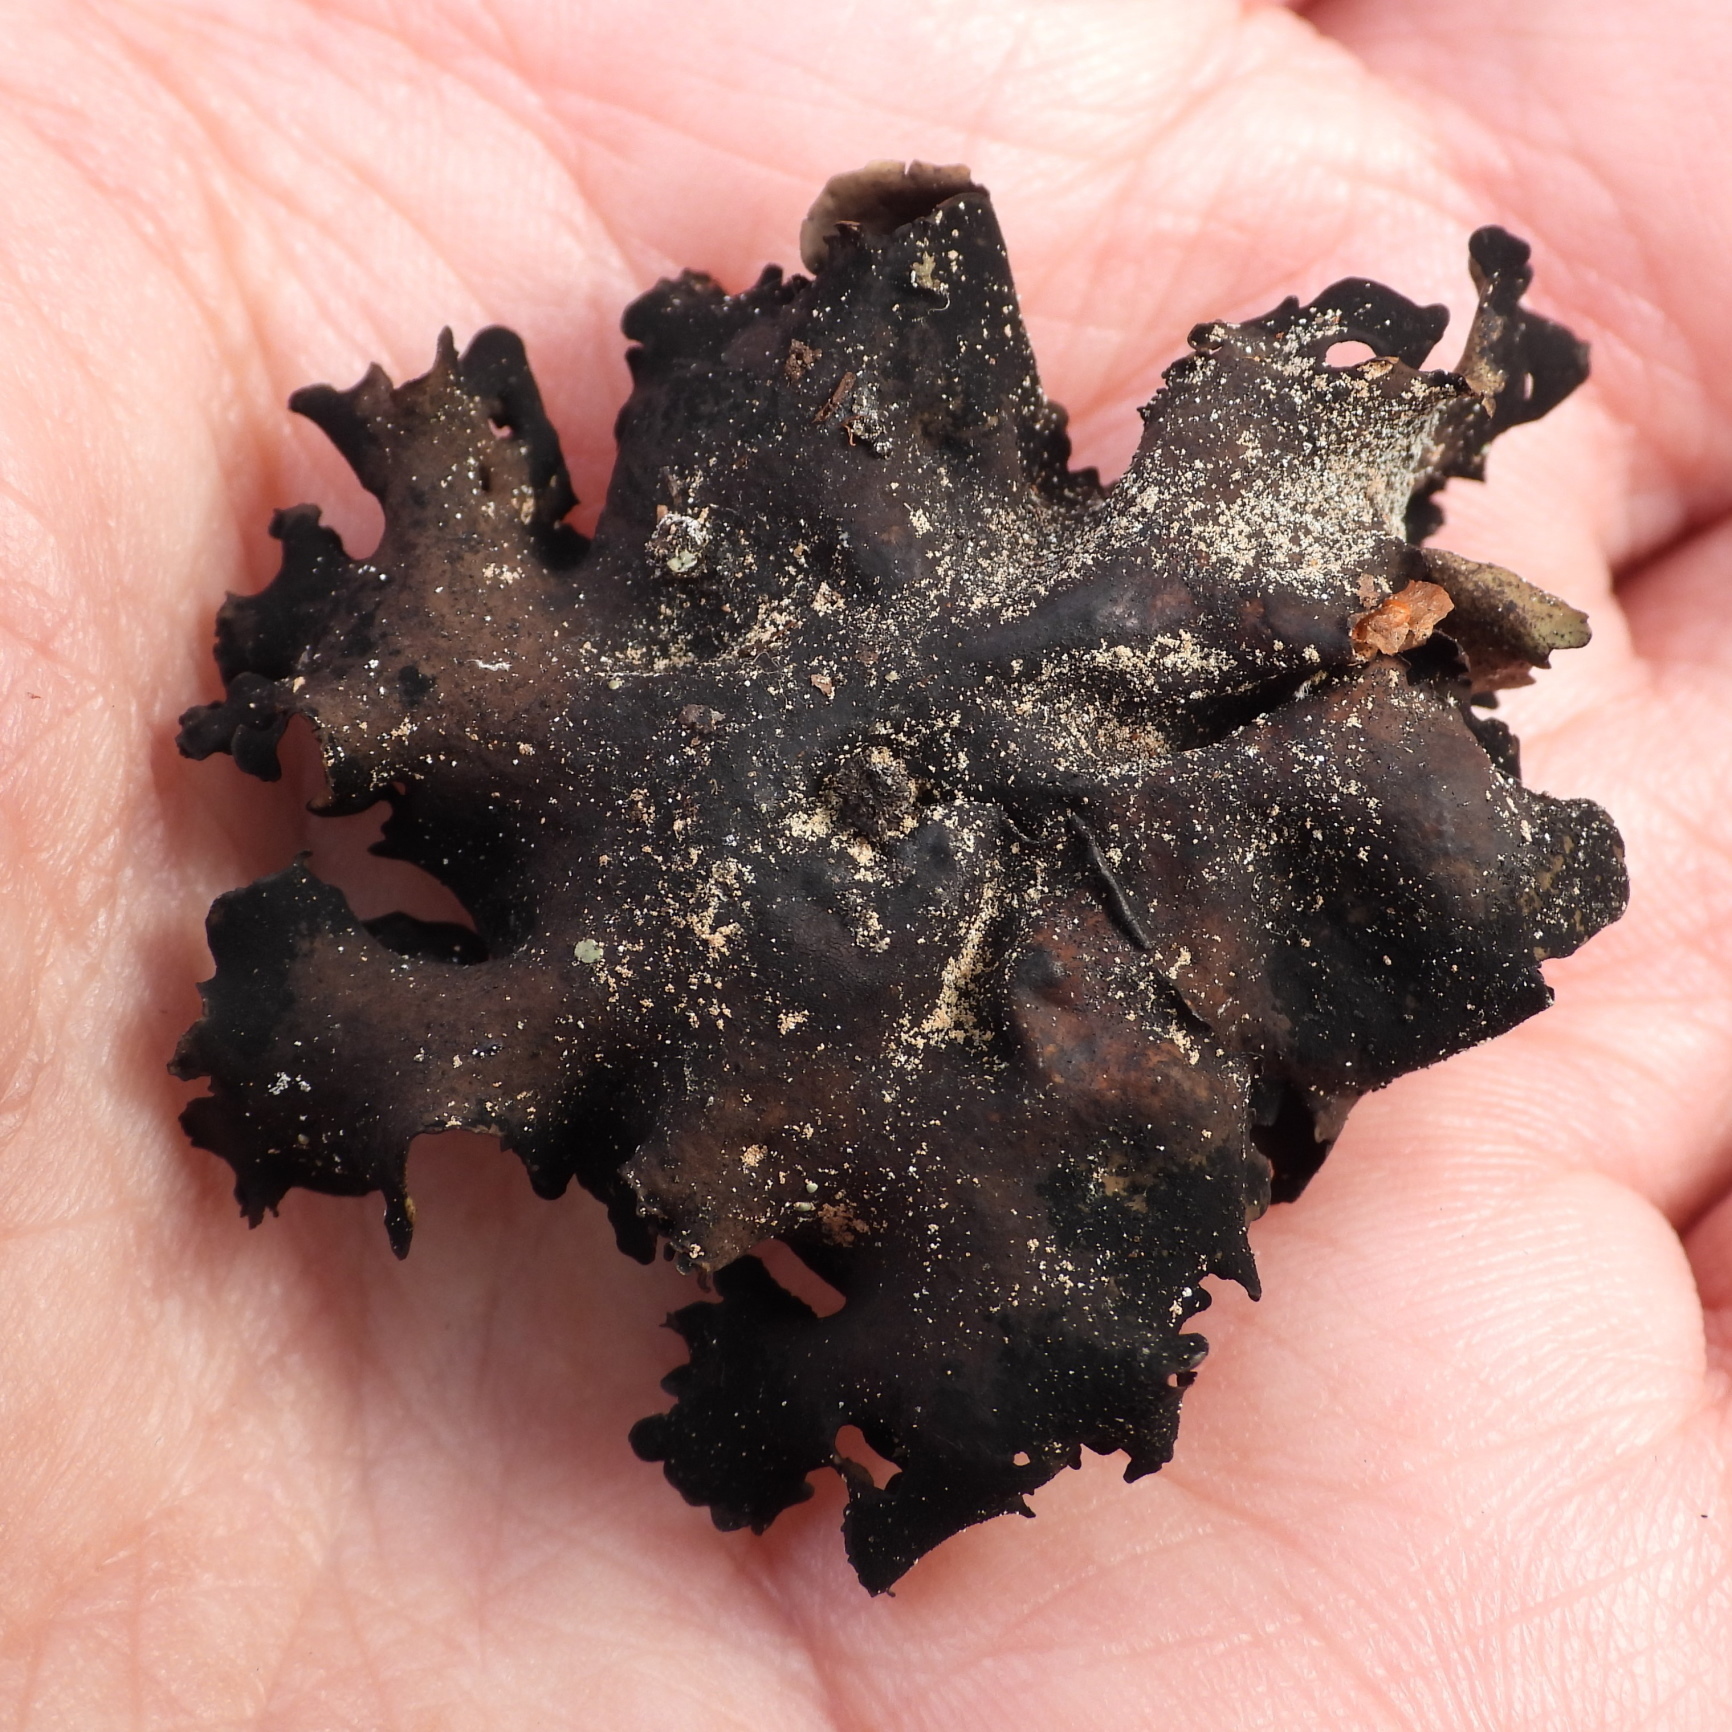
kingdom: Fungi
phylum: Ascomycota
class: Lecanoromycetes
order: Umbilicariales
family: Umbilicariaceae
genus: Umbilicaria
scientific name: Umbilicaria polyphylla
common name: Petalled rocktripe lichen
